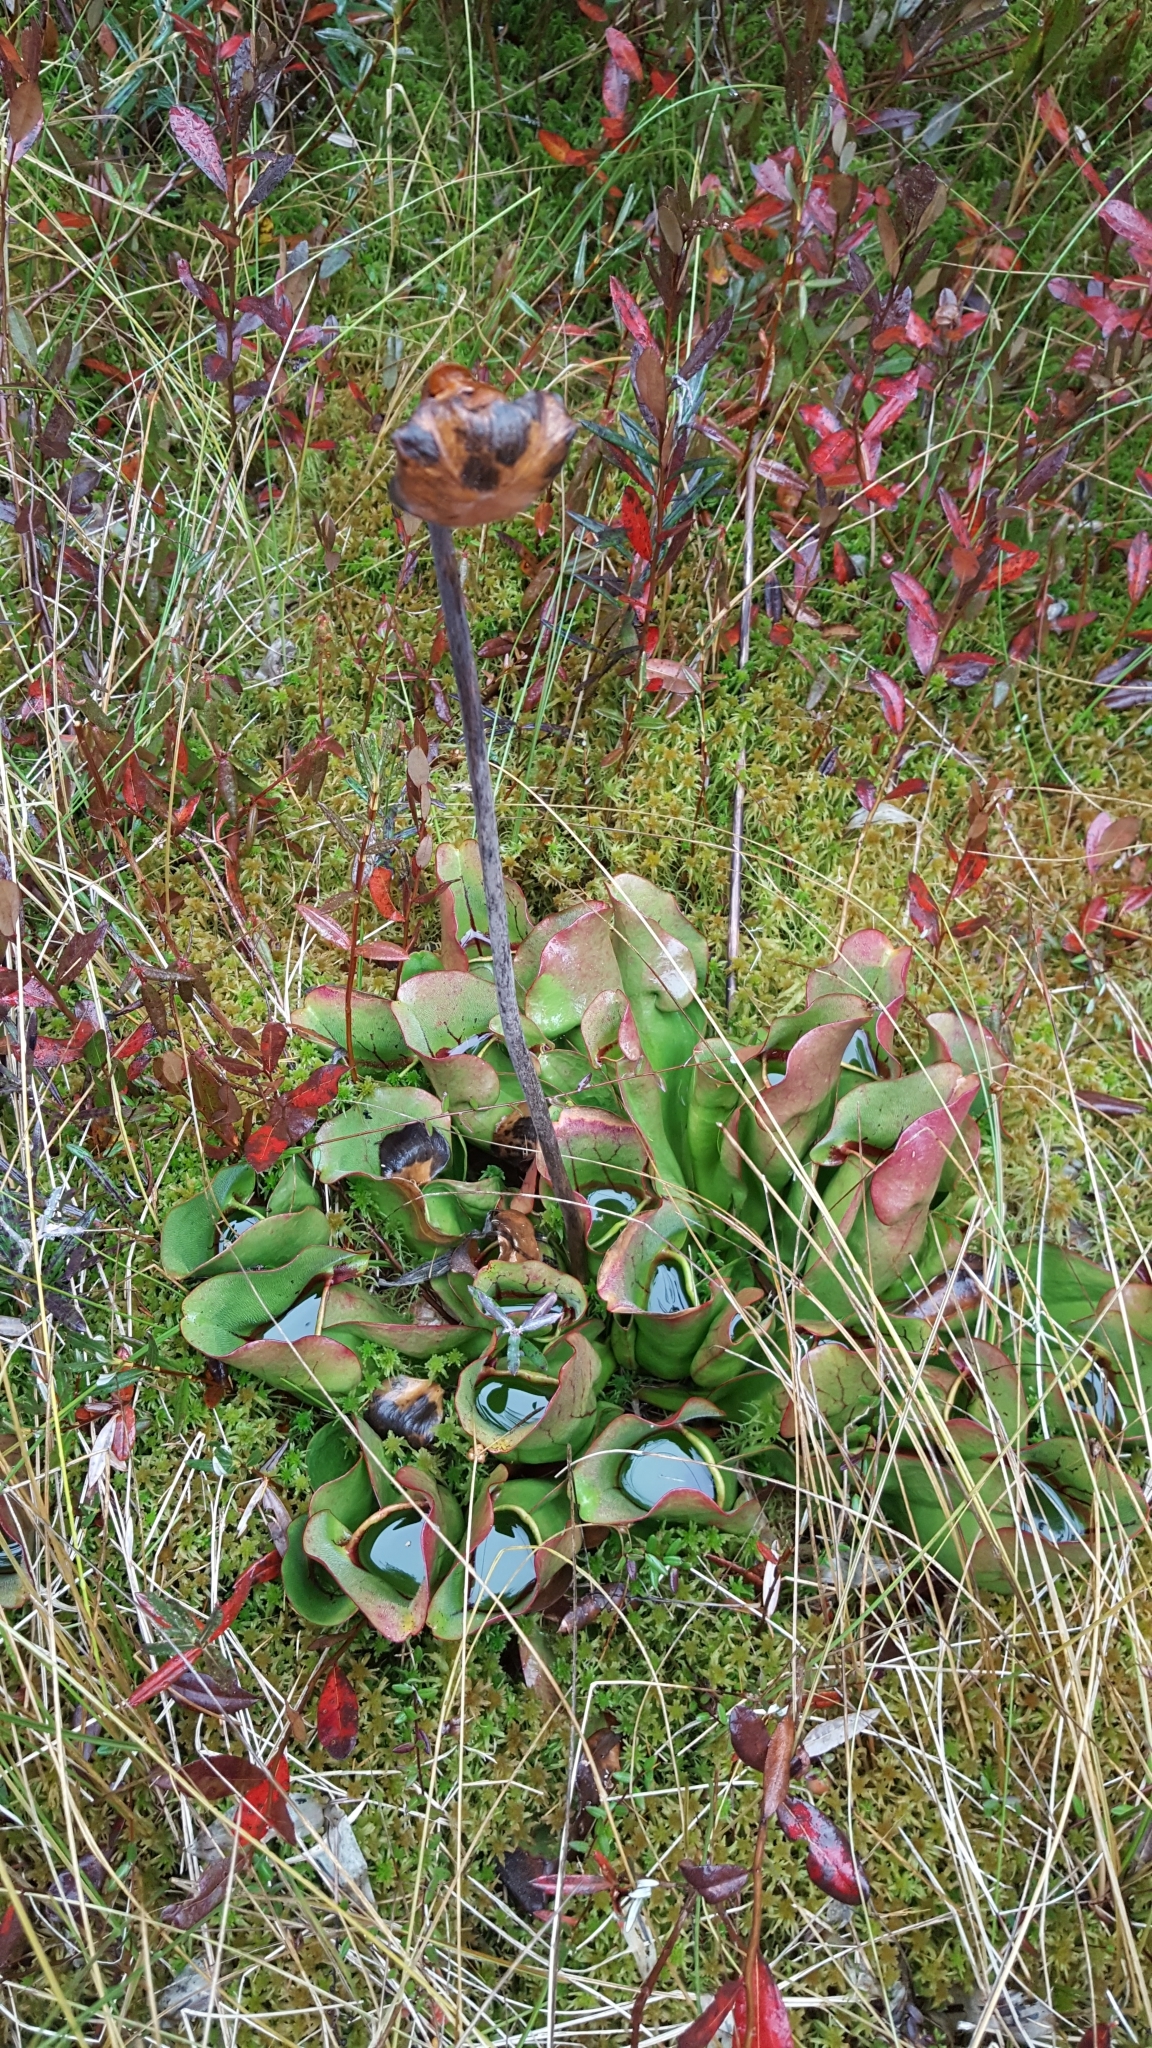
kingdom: Plantae
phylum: Tracheophyta
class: Magnoliopsida
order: Ericales
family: Sarraceniaceae
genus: Sarracenia
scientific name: Sarracenia purpurea
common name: Pitcherplant
